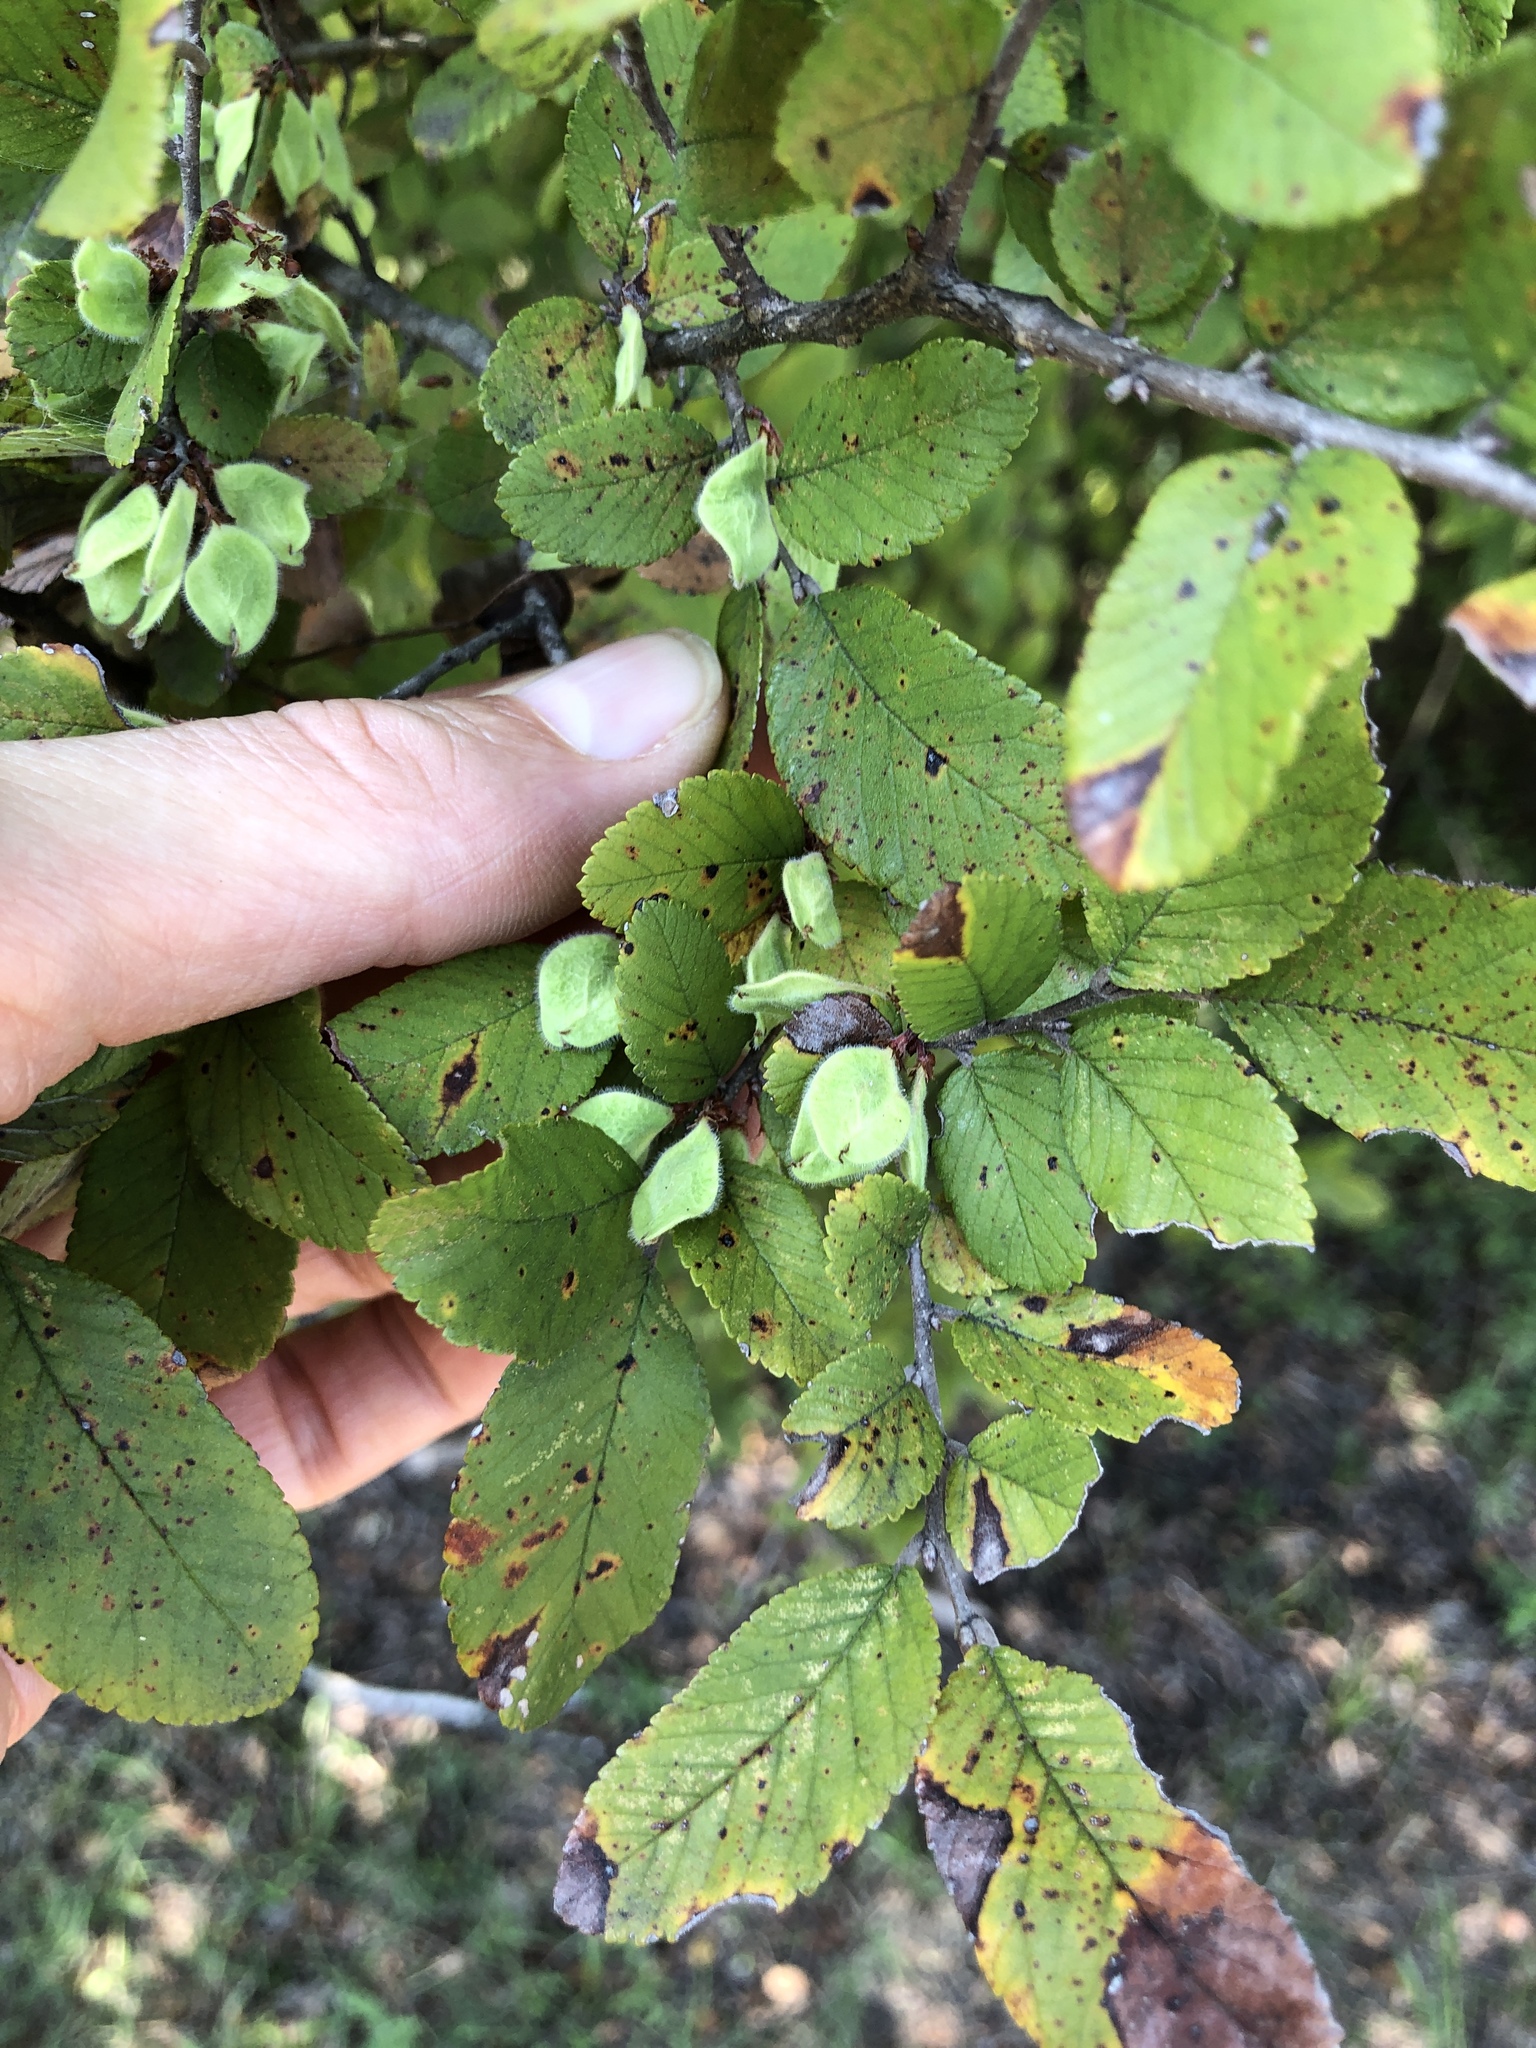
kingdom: Plantae
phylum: Tracheophyta
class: Magnoliopsida
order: Rosales
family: Ulmaceae
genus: Ulmus
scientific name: Ulmus crassifolia
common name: Basket elm
